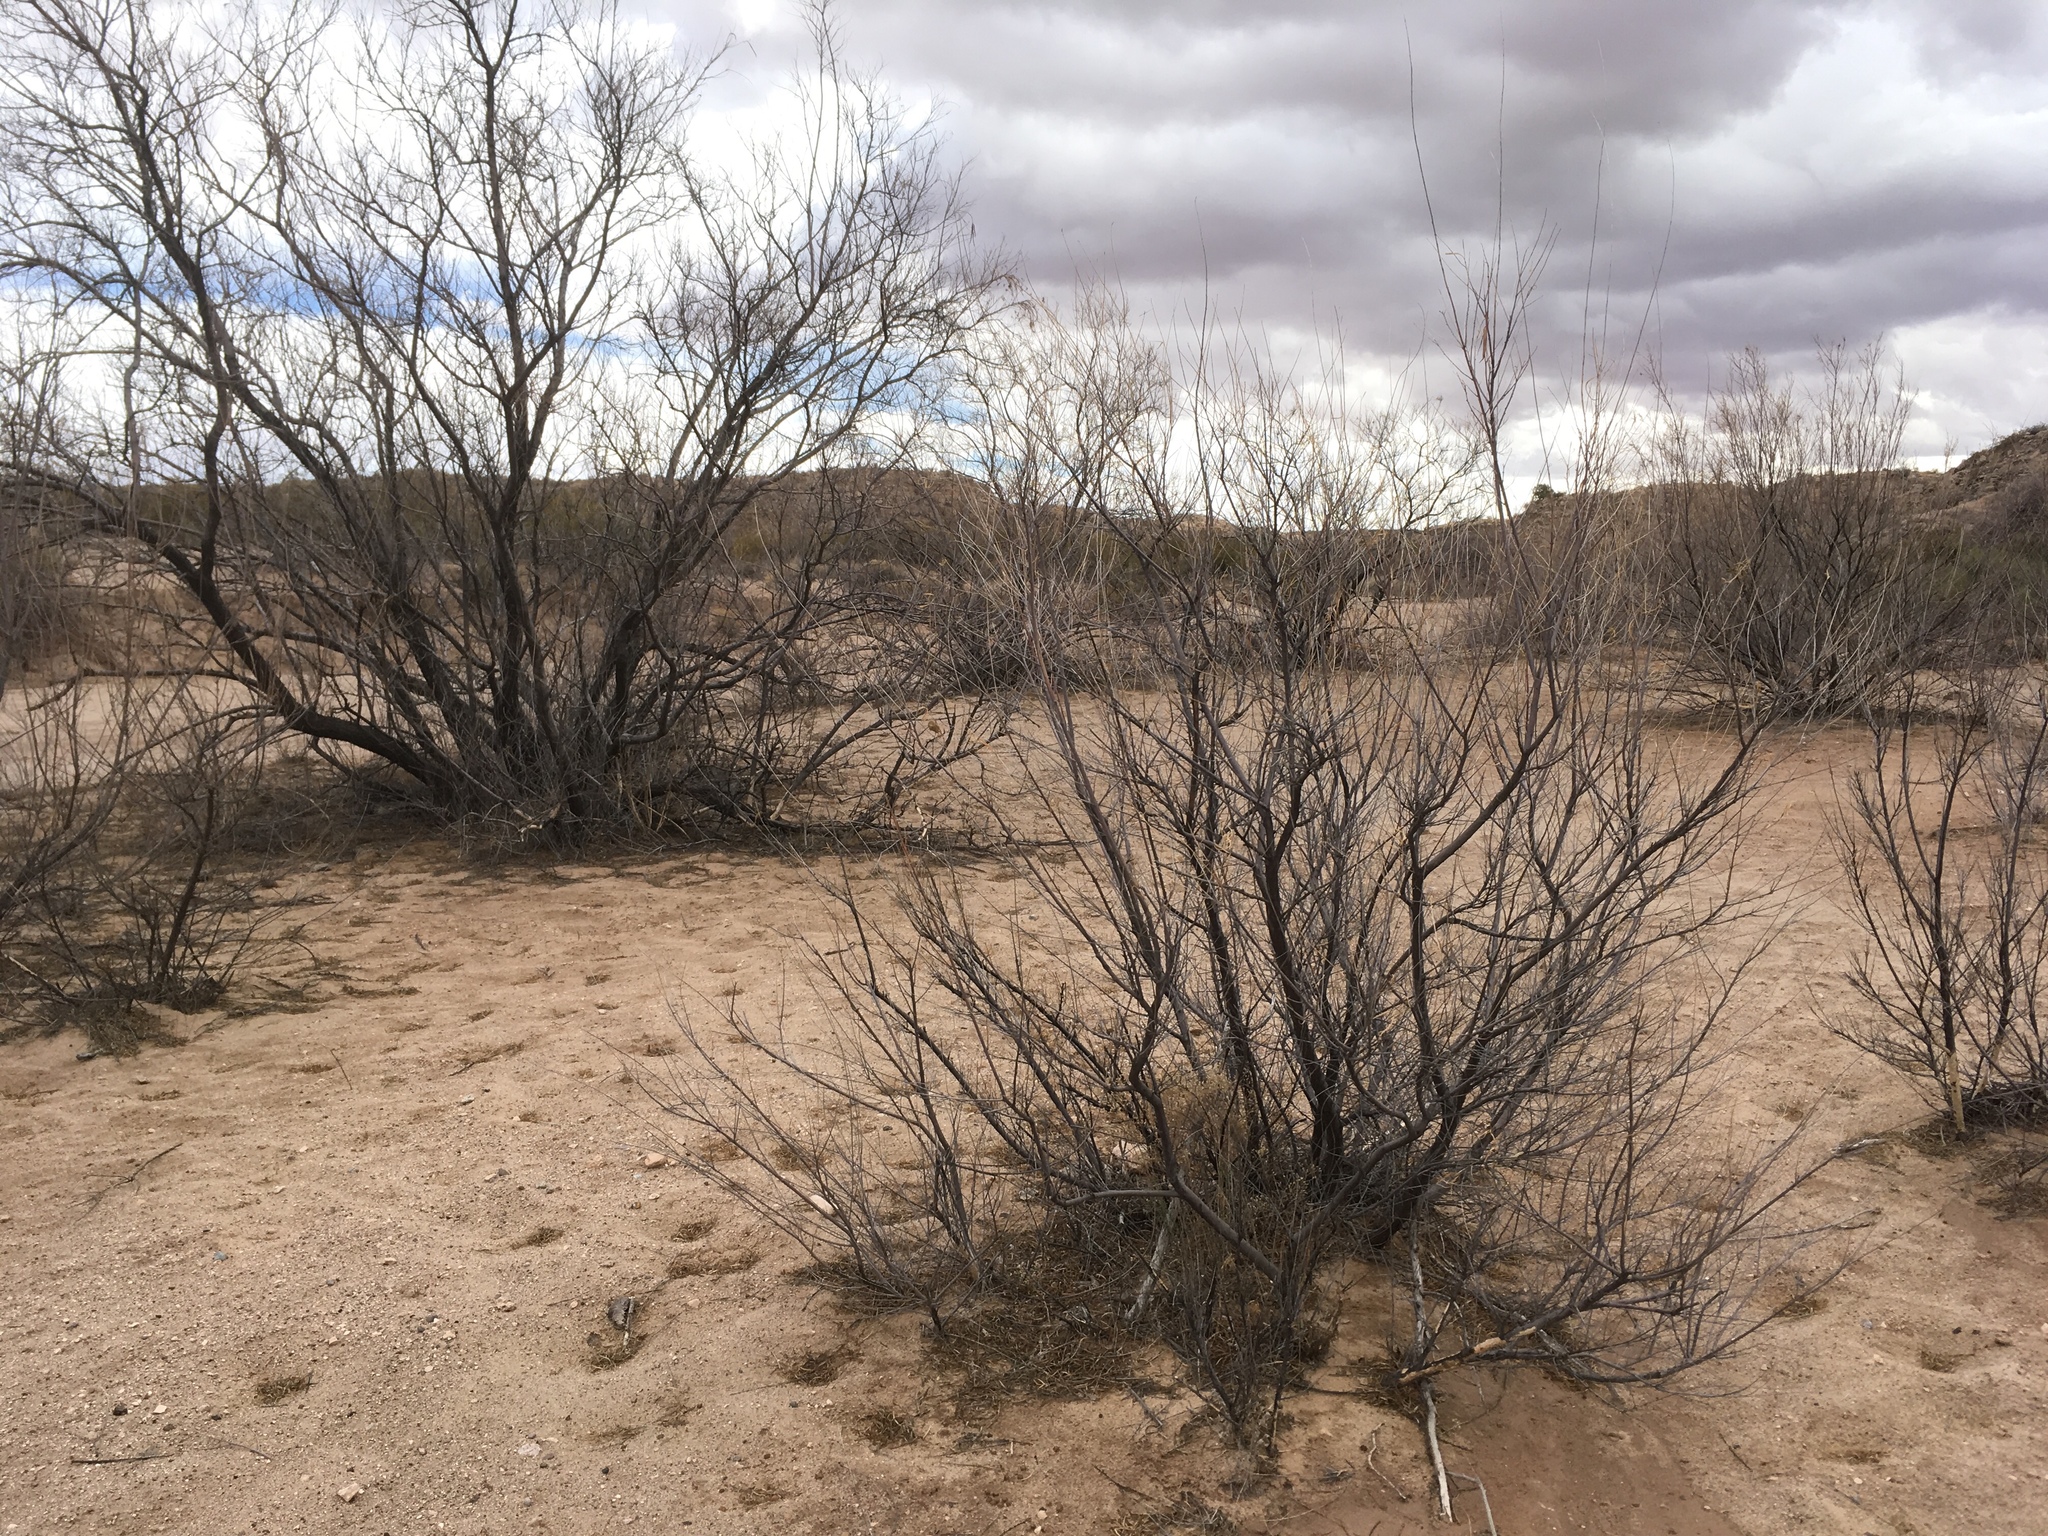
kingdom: Plantae
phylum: Tracheophyta
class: Magnoliopsida
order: Lamiales
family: Bignoniaceae
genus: Chilopsis
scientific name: Chilopsis linearis
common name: Desert-willow
